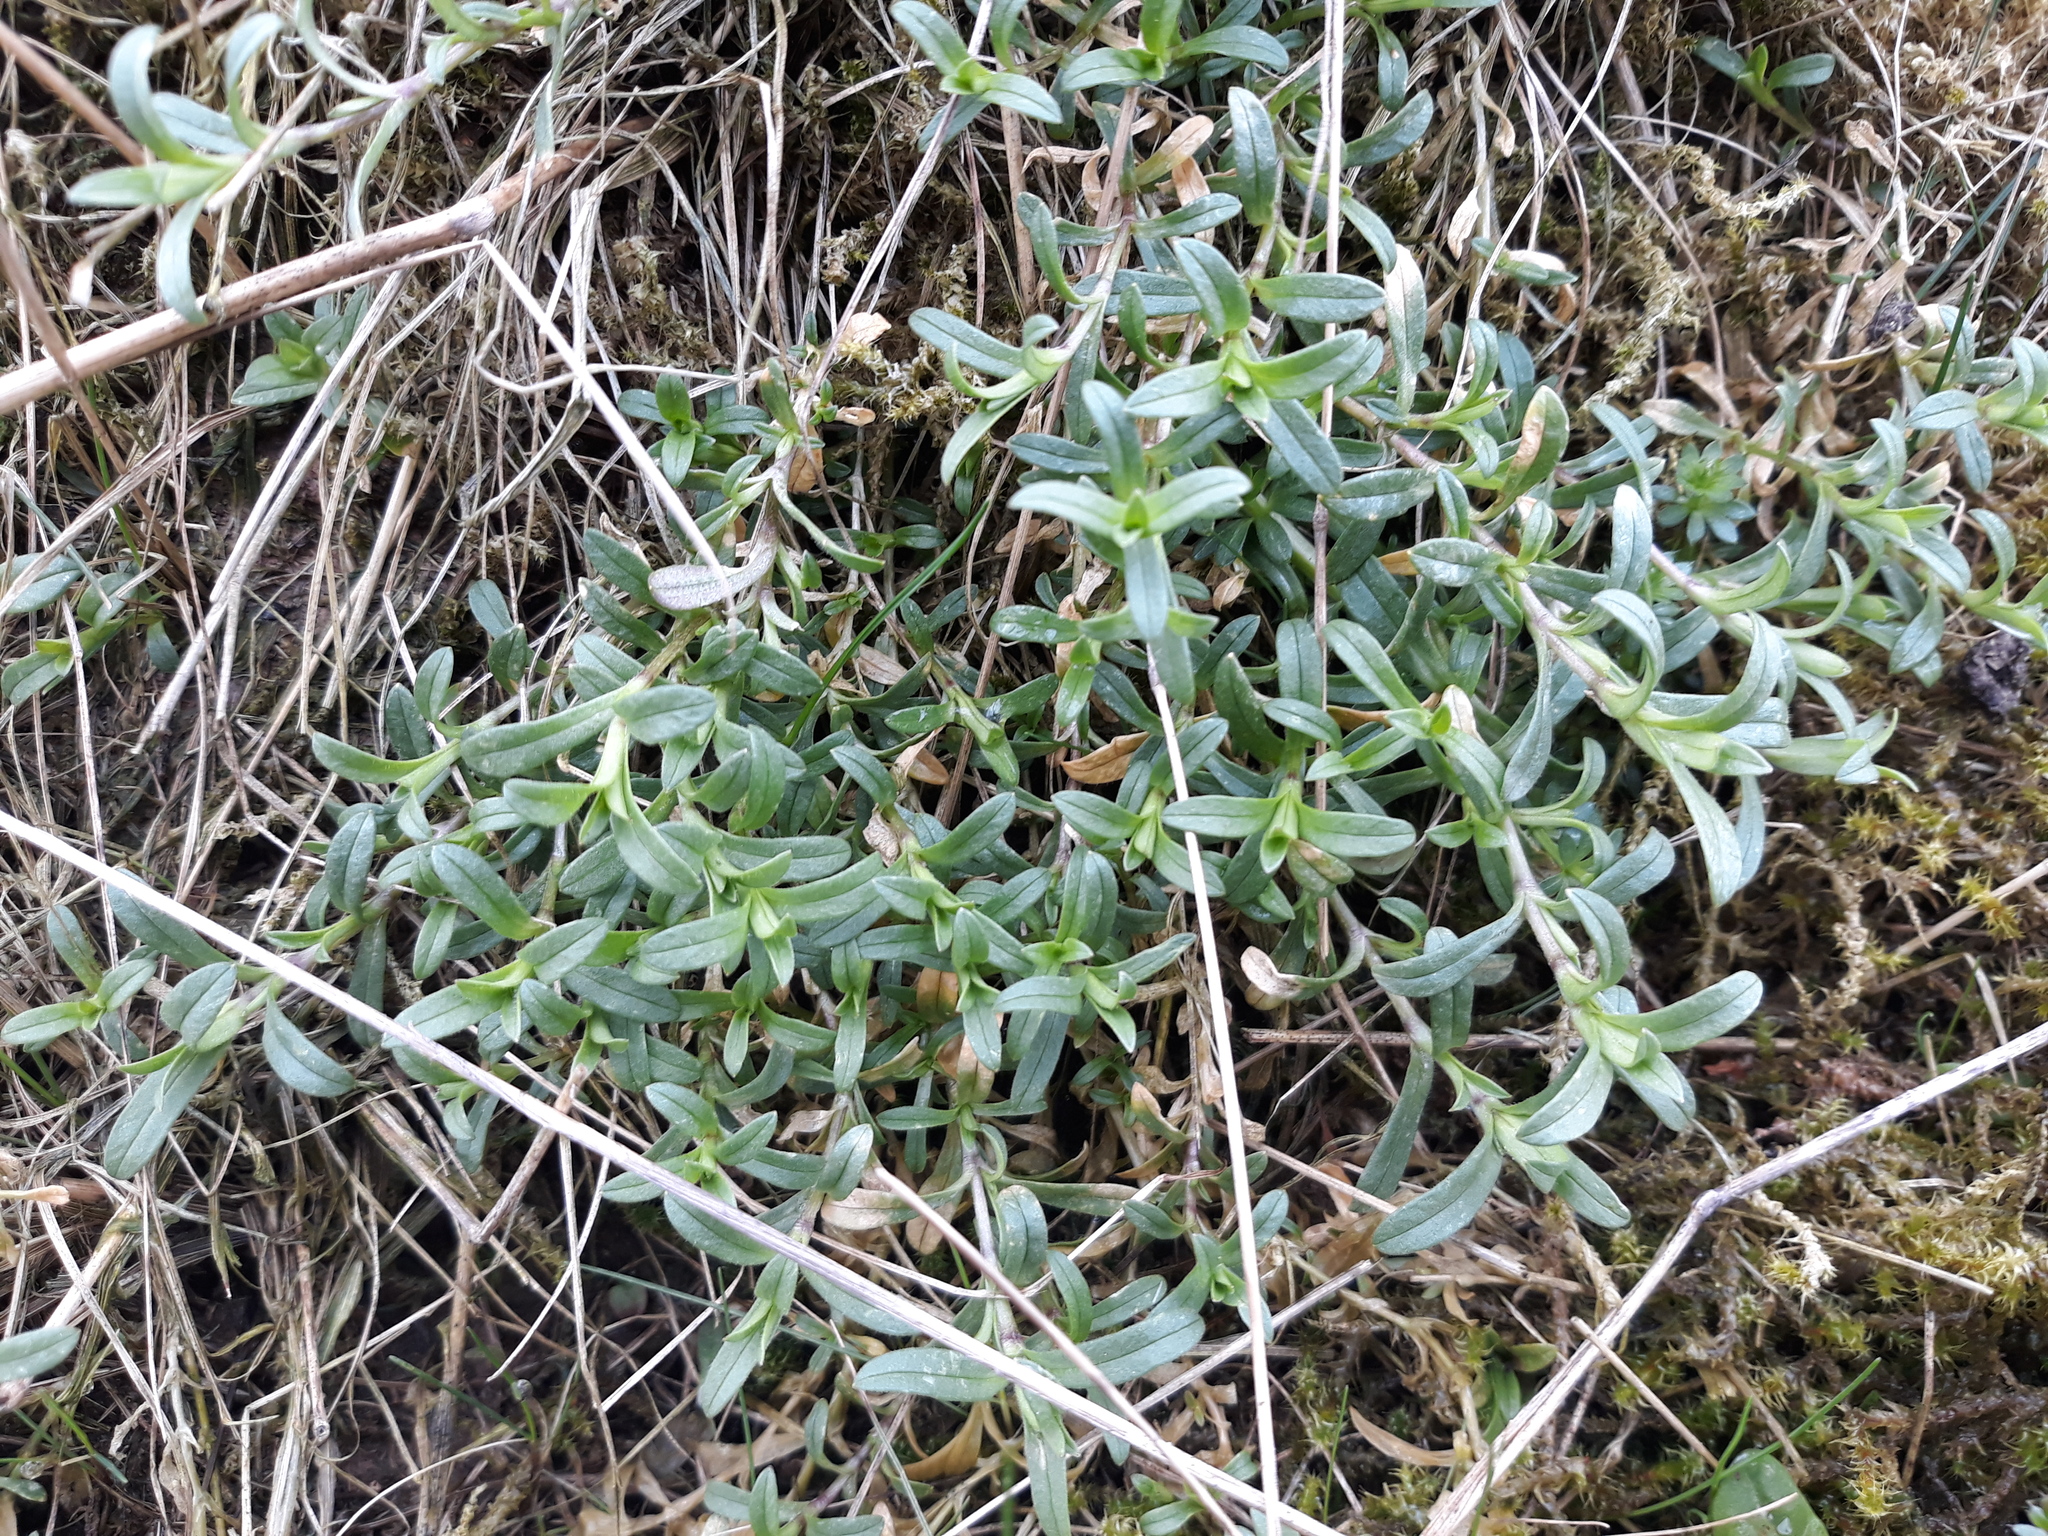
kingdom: Plantae
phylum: Tracheophyta
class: Magnoliopsida
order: Caryophyllales
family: Caryophyllaceae
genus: Cerastium
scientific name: Cerastium arvense
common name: Field mouse-ear
